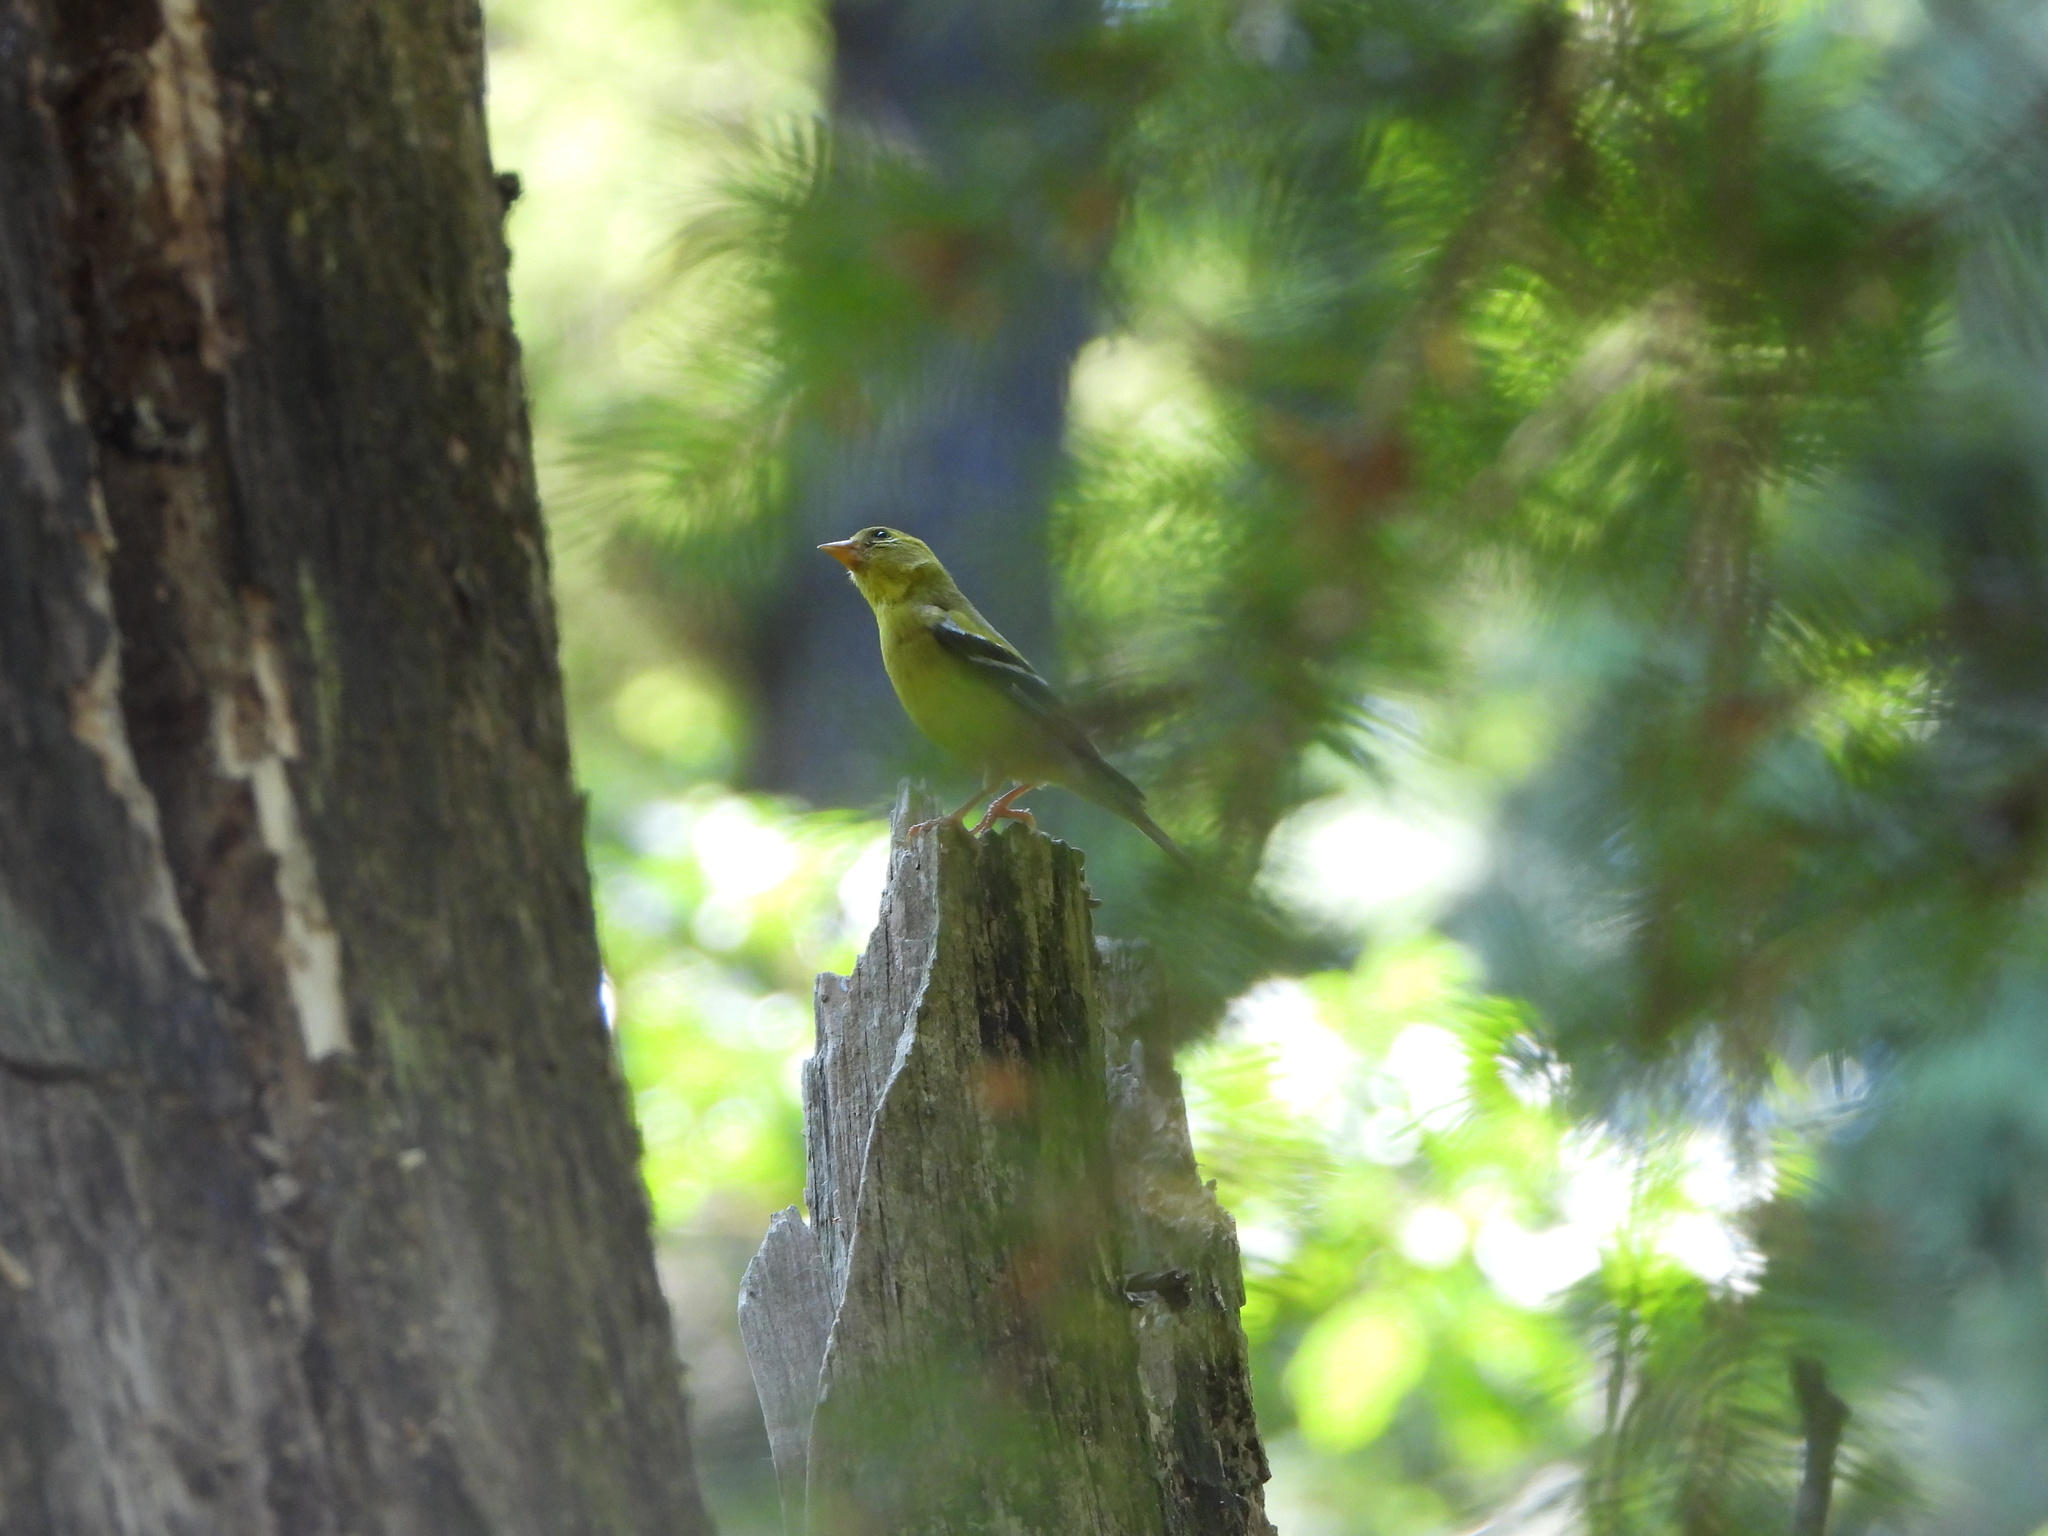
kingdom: Animalia
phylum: Chordata
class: Aves
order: Passeriformes
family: Fringillidae
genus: Spinus
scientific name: Spinus tristis
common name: American goldfinch
